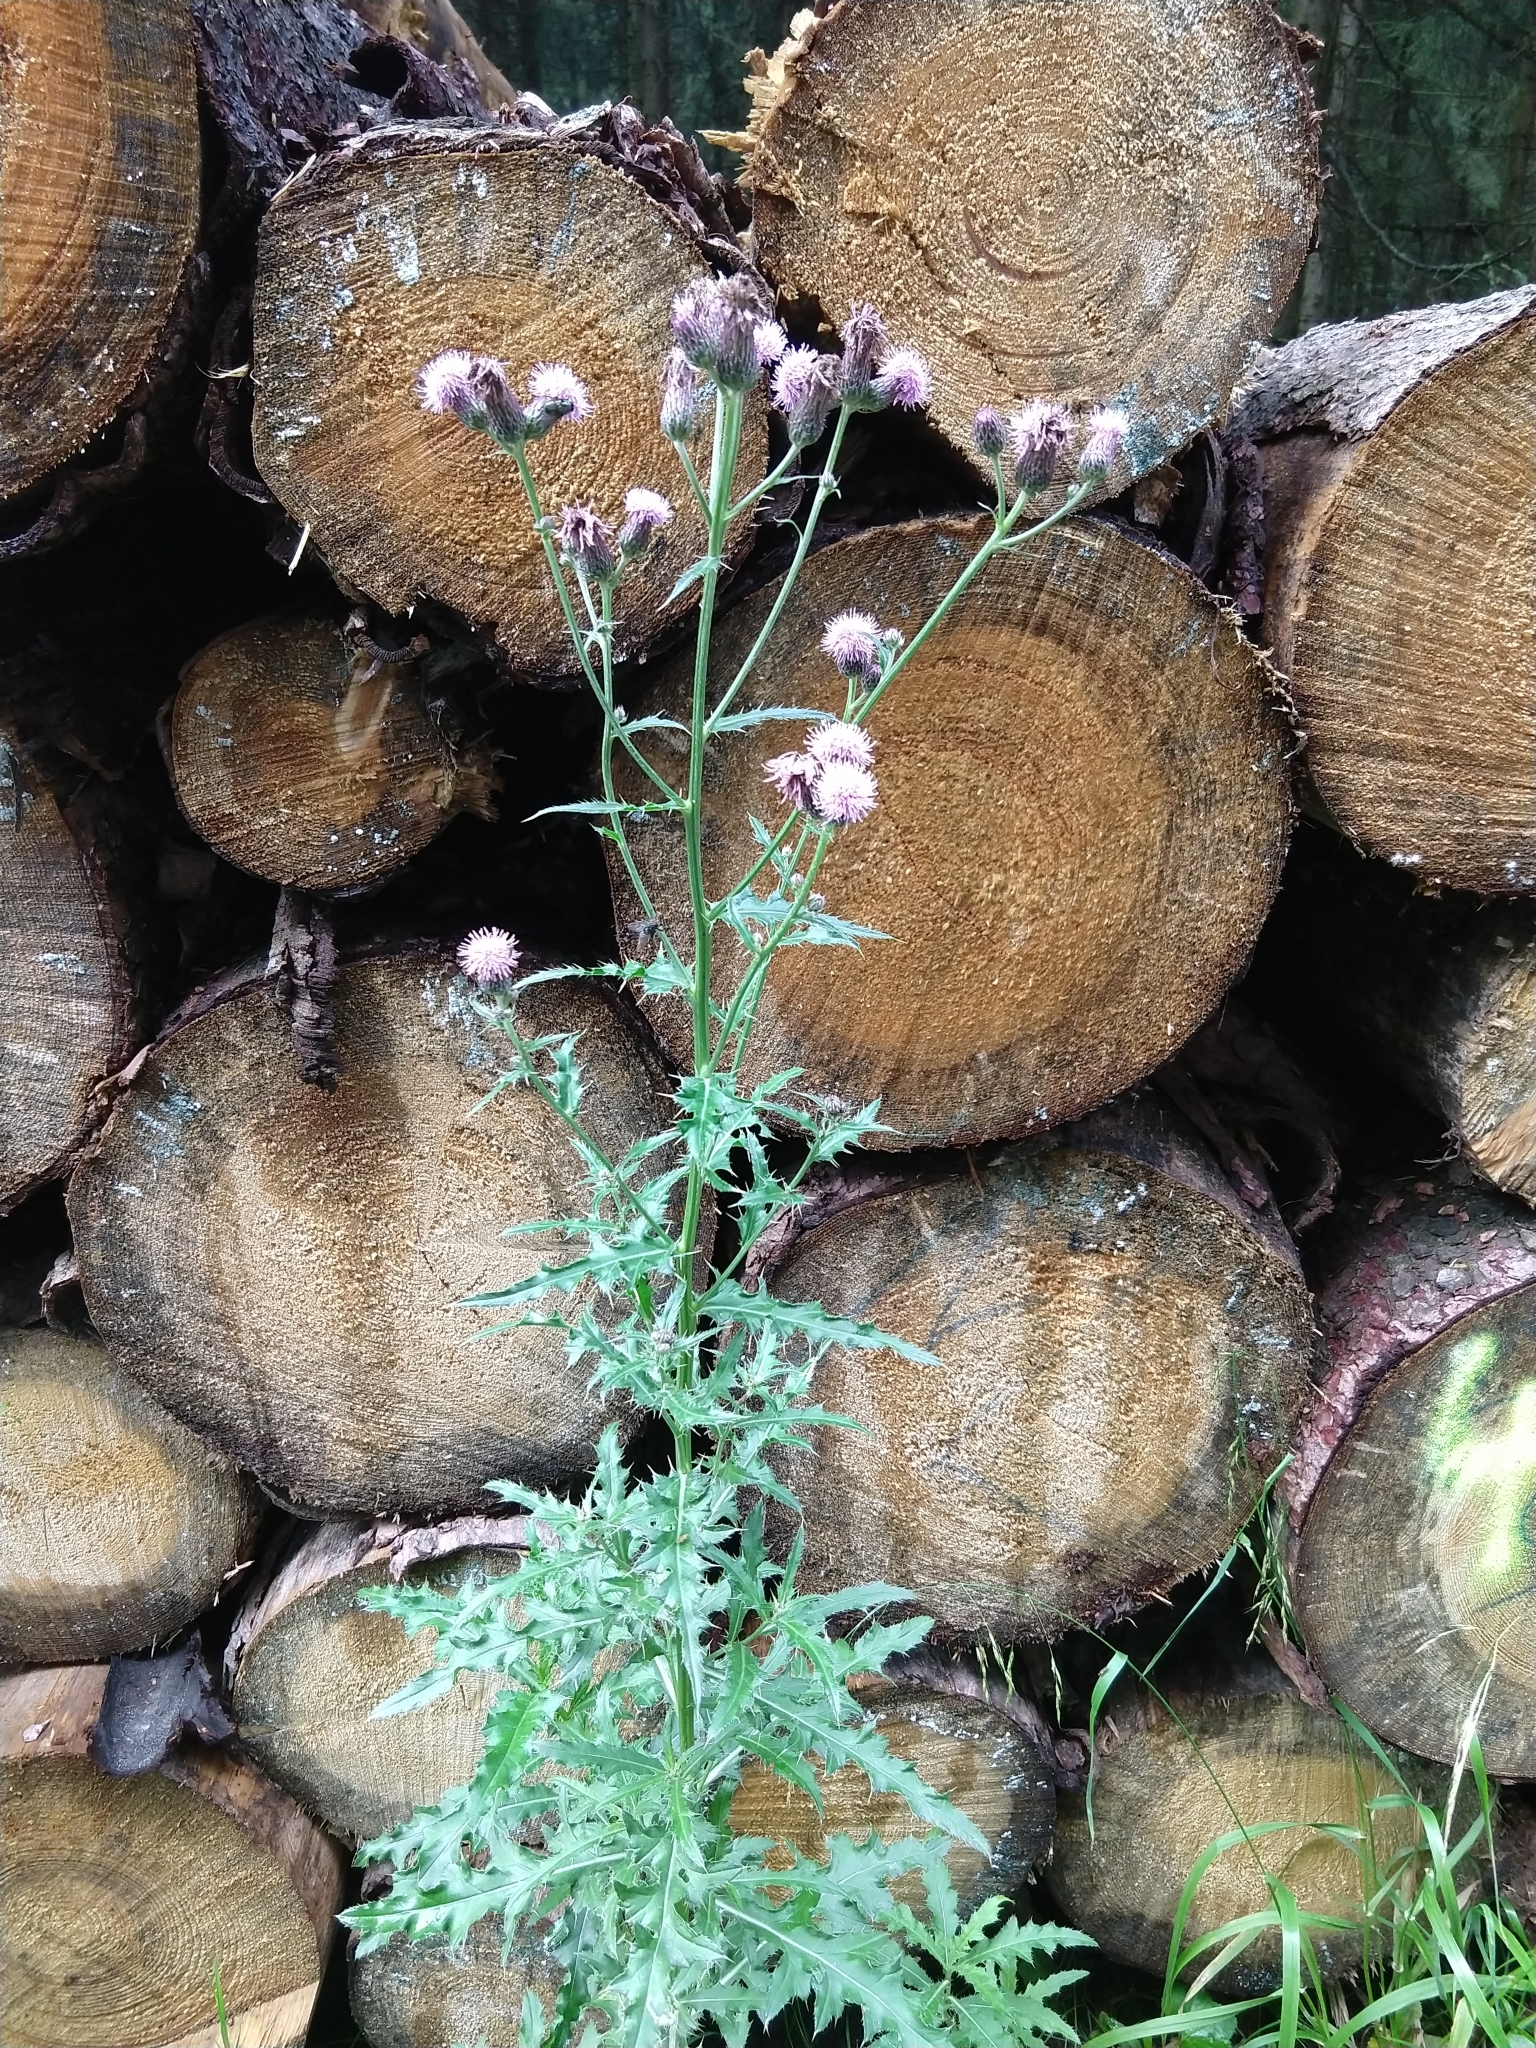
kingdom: Plantae
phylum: Tracheophyta
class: Magnoliopsida
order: Asterales
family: Asteraceae
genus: Cirsium
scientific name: Cirsium arvense
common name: Creeping thistle
